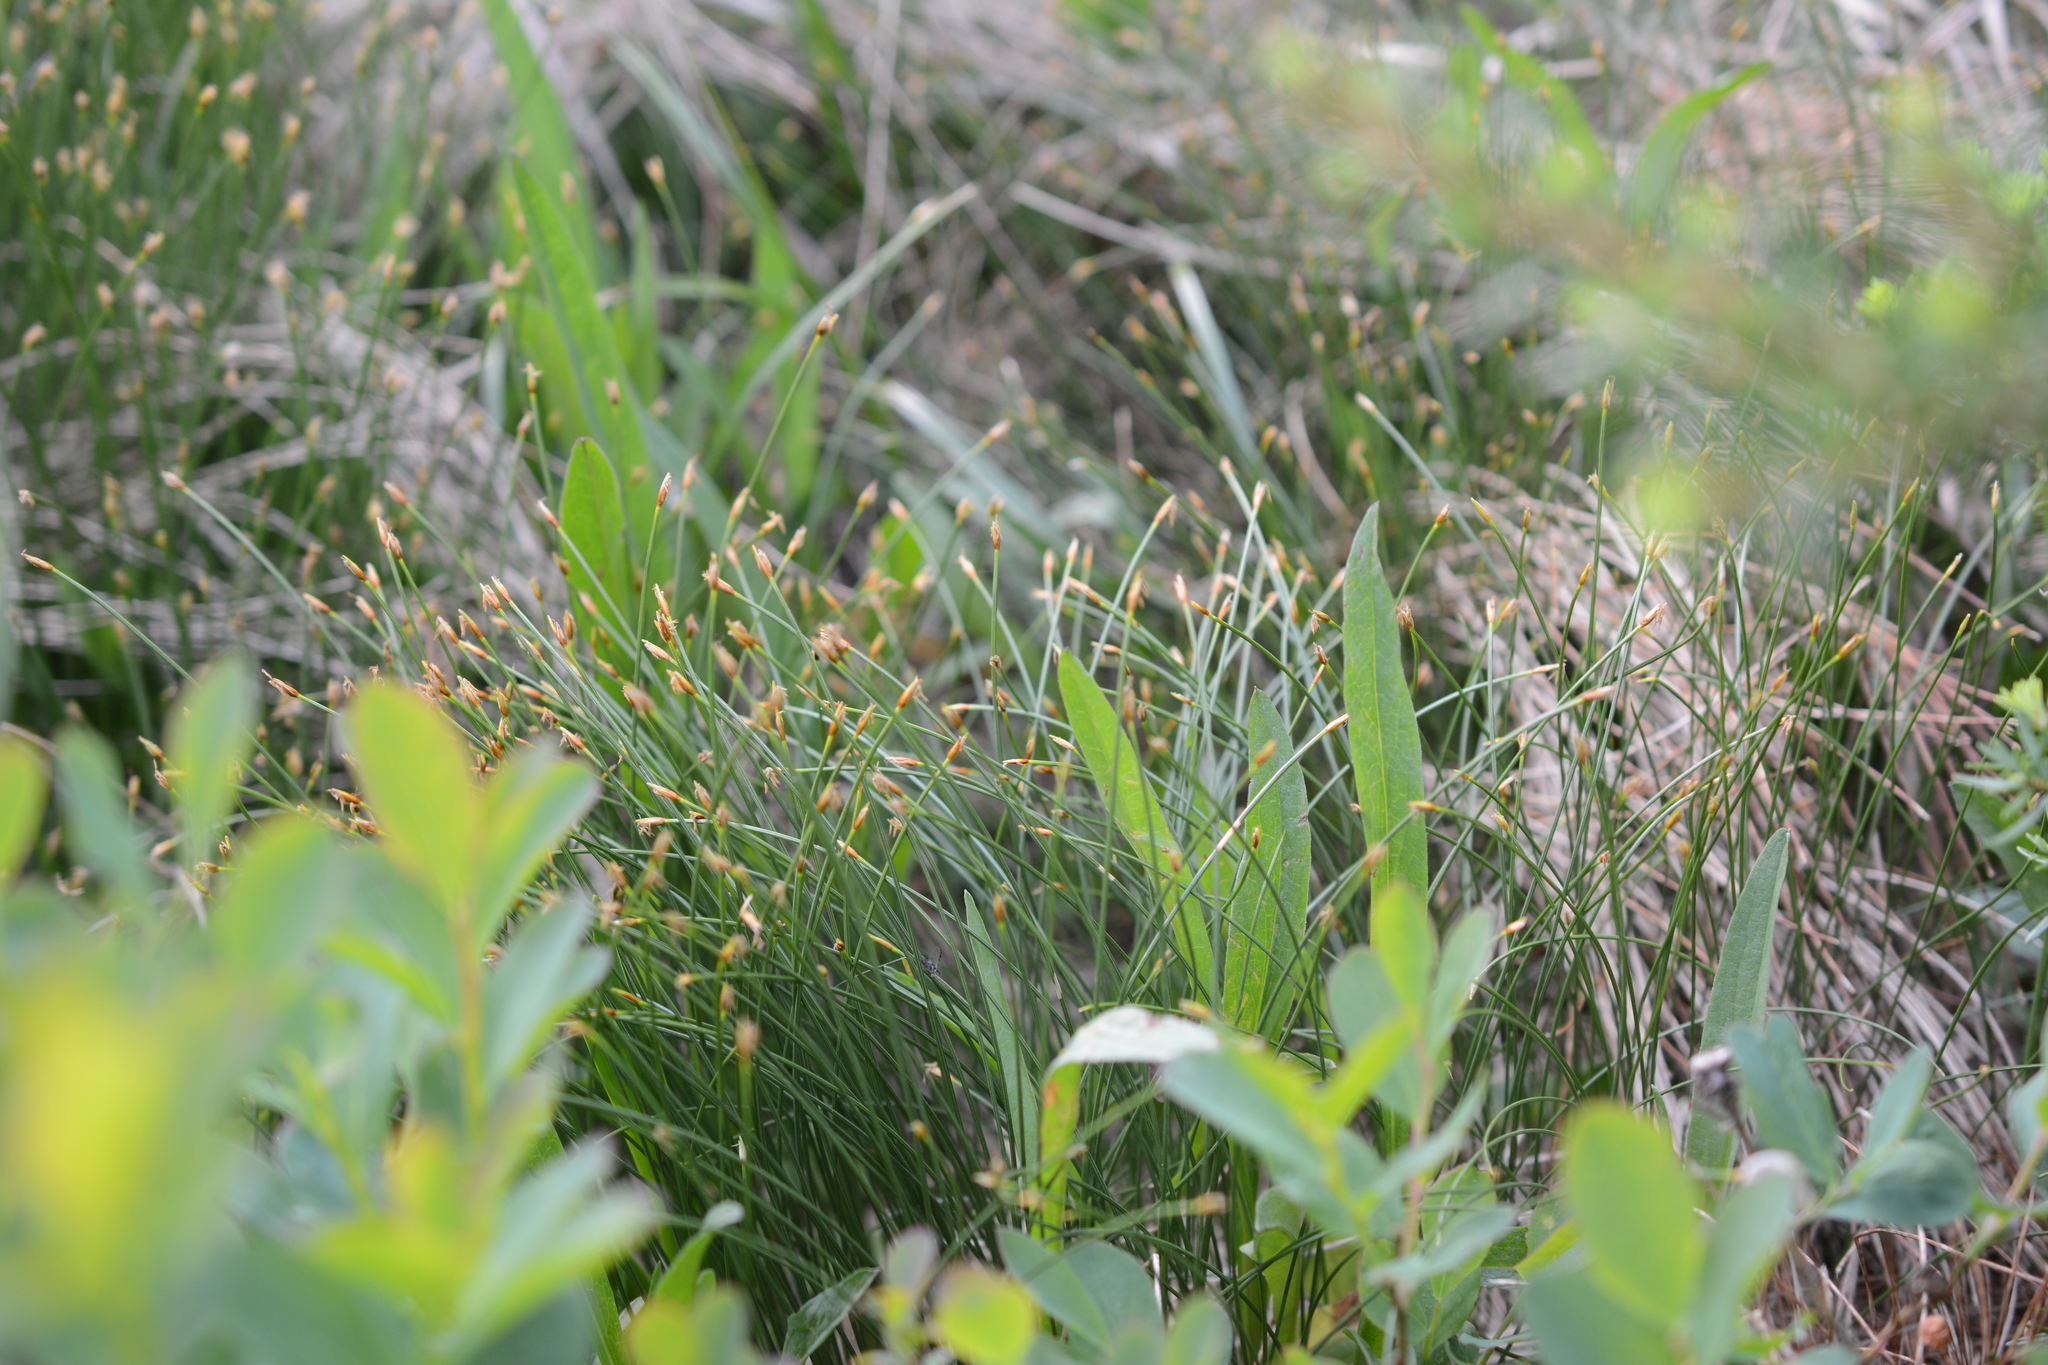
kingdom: Plantae
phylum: Tracheophyta
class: Liliopsida
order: Poales
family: Cyperaceae
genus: Trichophorum
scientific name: Trichophorum cespitosum
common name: Cespitose bulrush
